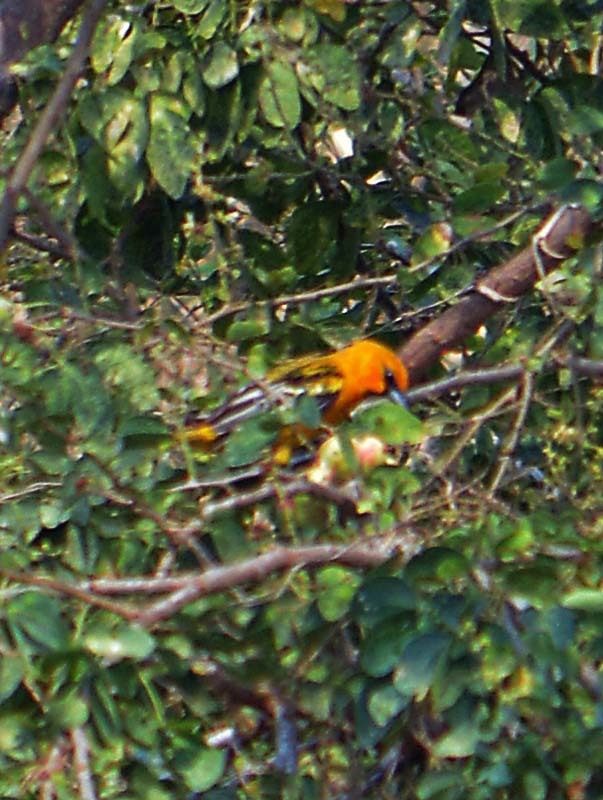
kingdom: Animalia
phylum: Chordata
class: Aves
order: Passeriformes
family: Icteridae
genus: Icterus
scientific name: Icterus pustulatus
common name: Streak-backed oriole
